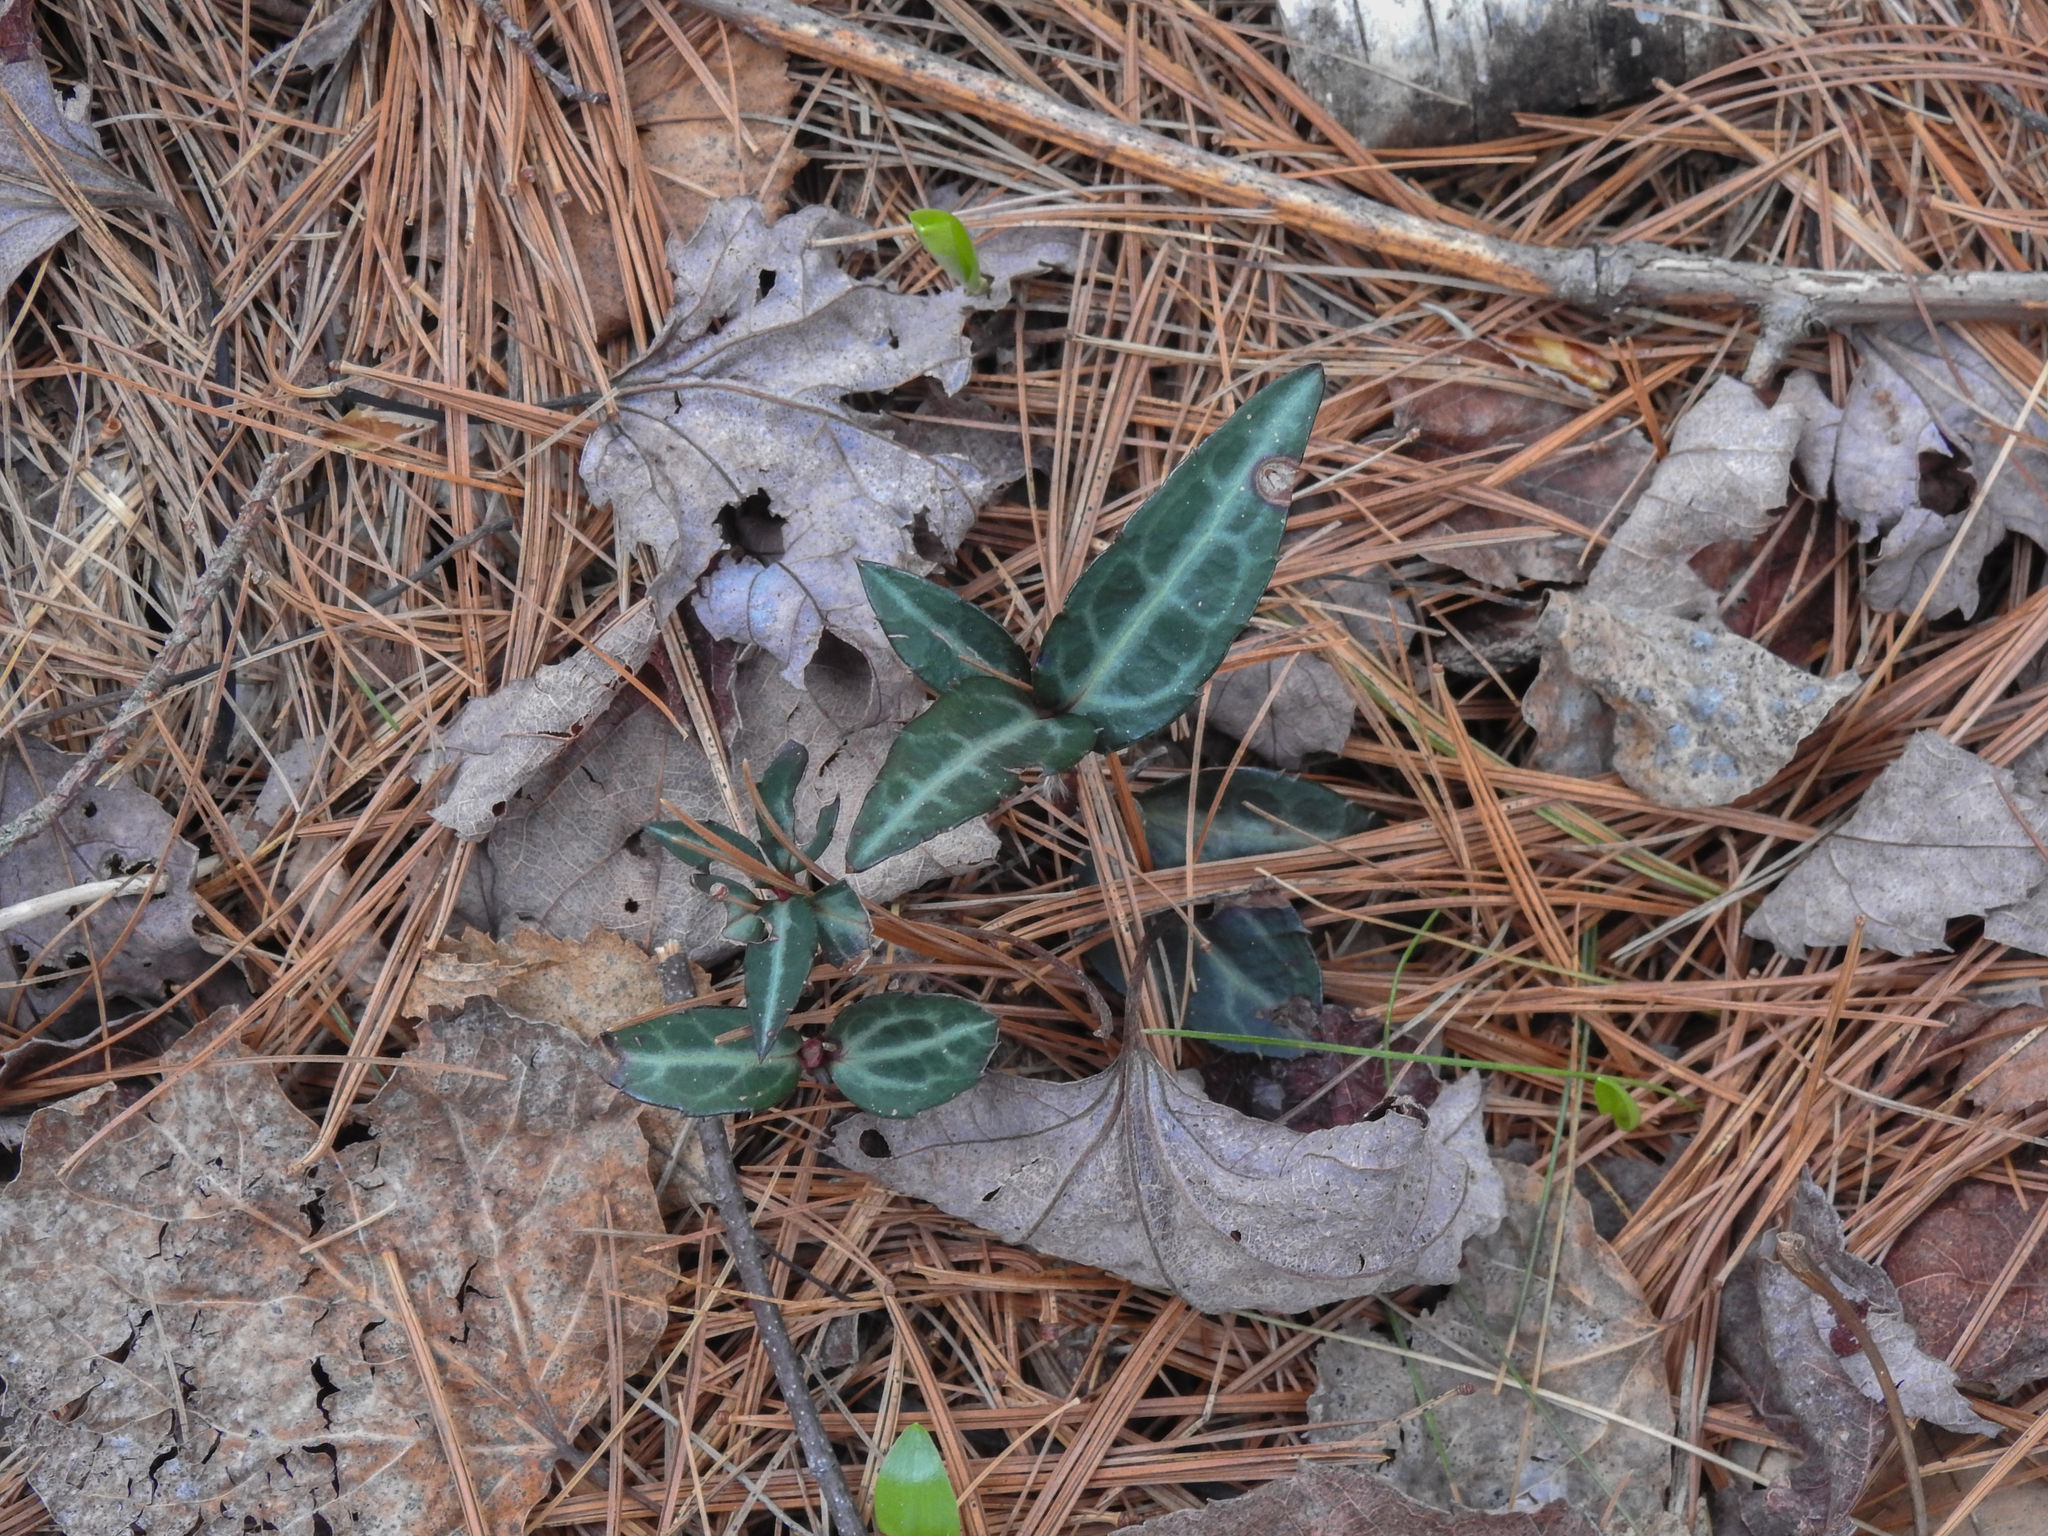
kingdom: Plantae
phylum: Tracheophyta
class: Magnoliopsida
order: Ericales
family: Ericaceae
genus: Chimaphila
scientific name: Chimaphila maculata
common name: Spotted pipsissewa
